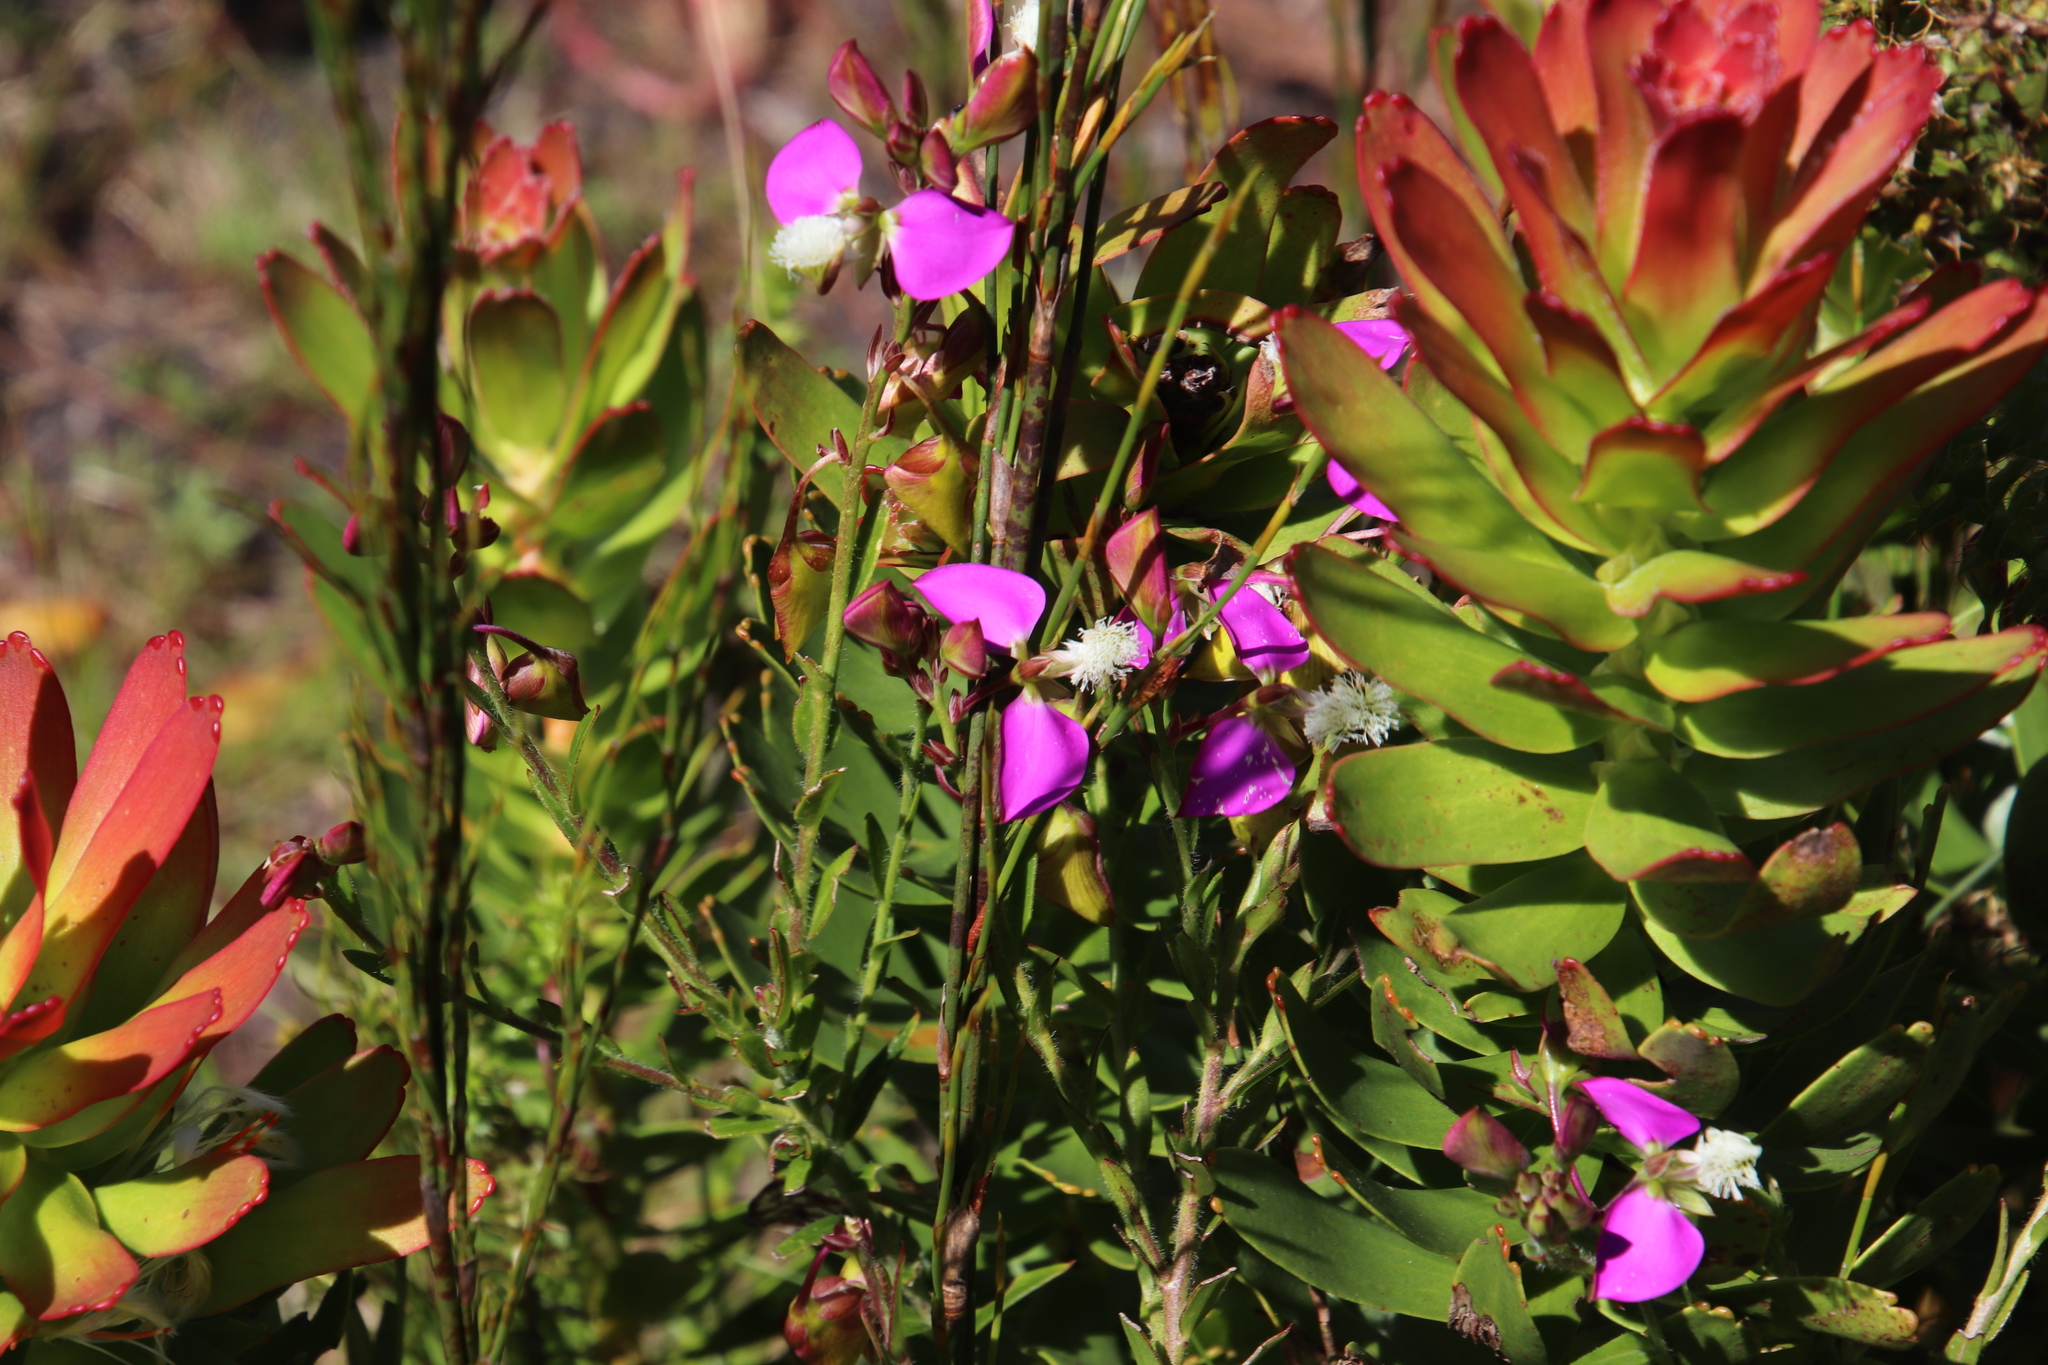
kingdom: Plantae
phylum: Tracheophyta
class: Magnoliopsida
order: Fabales
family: Polygalaceae
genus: Polygala
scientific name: Polygala bracteolata
